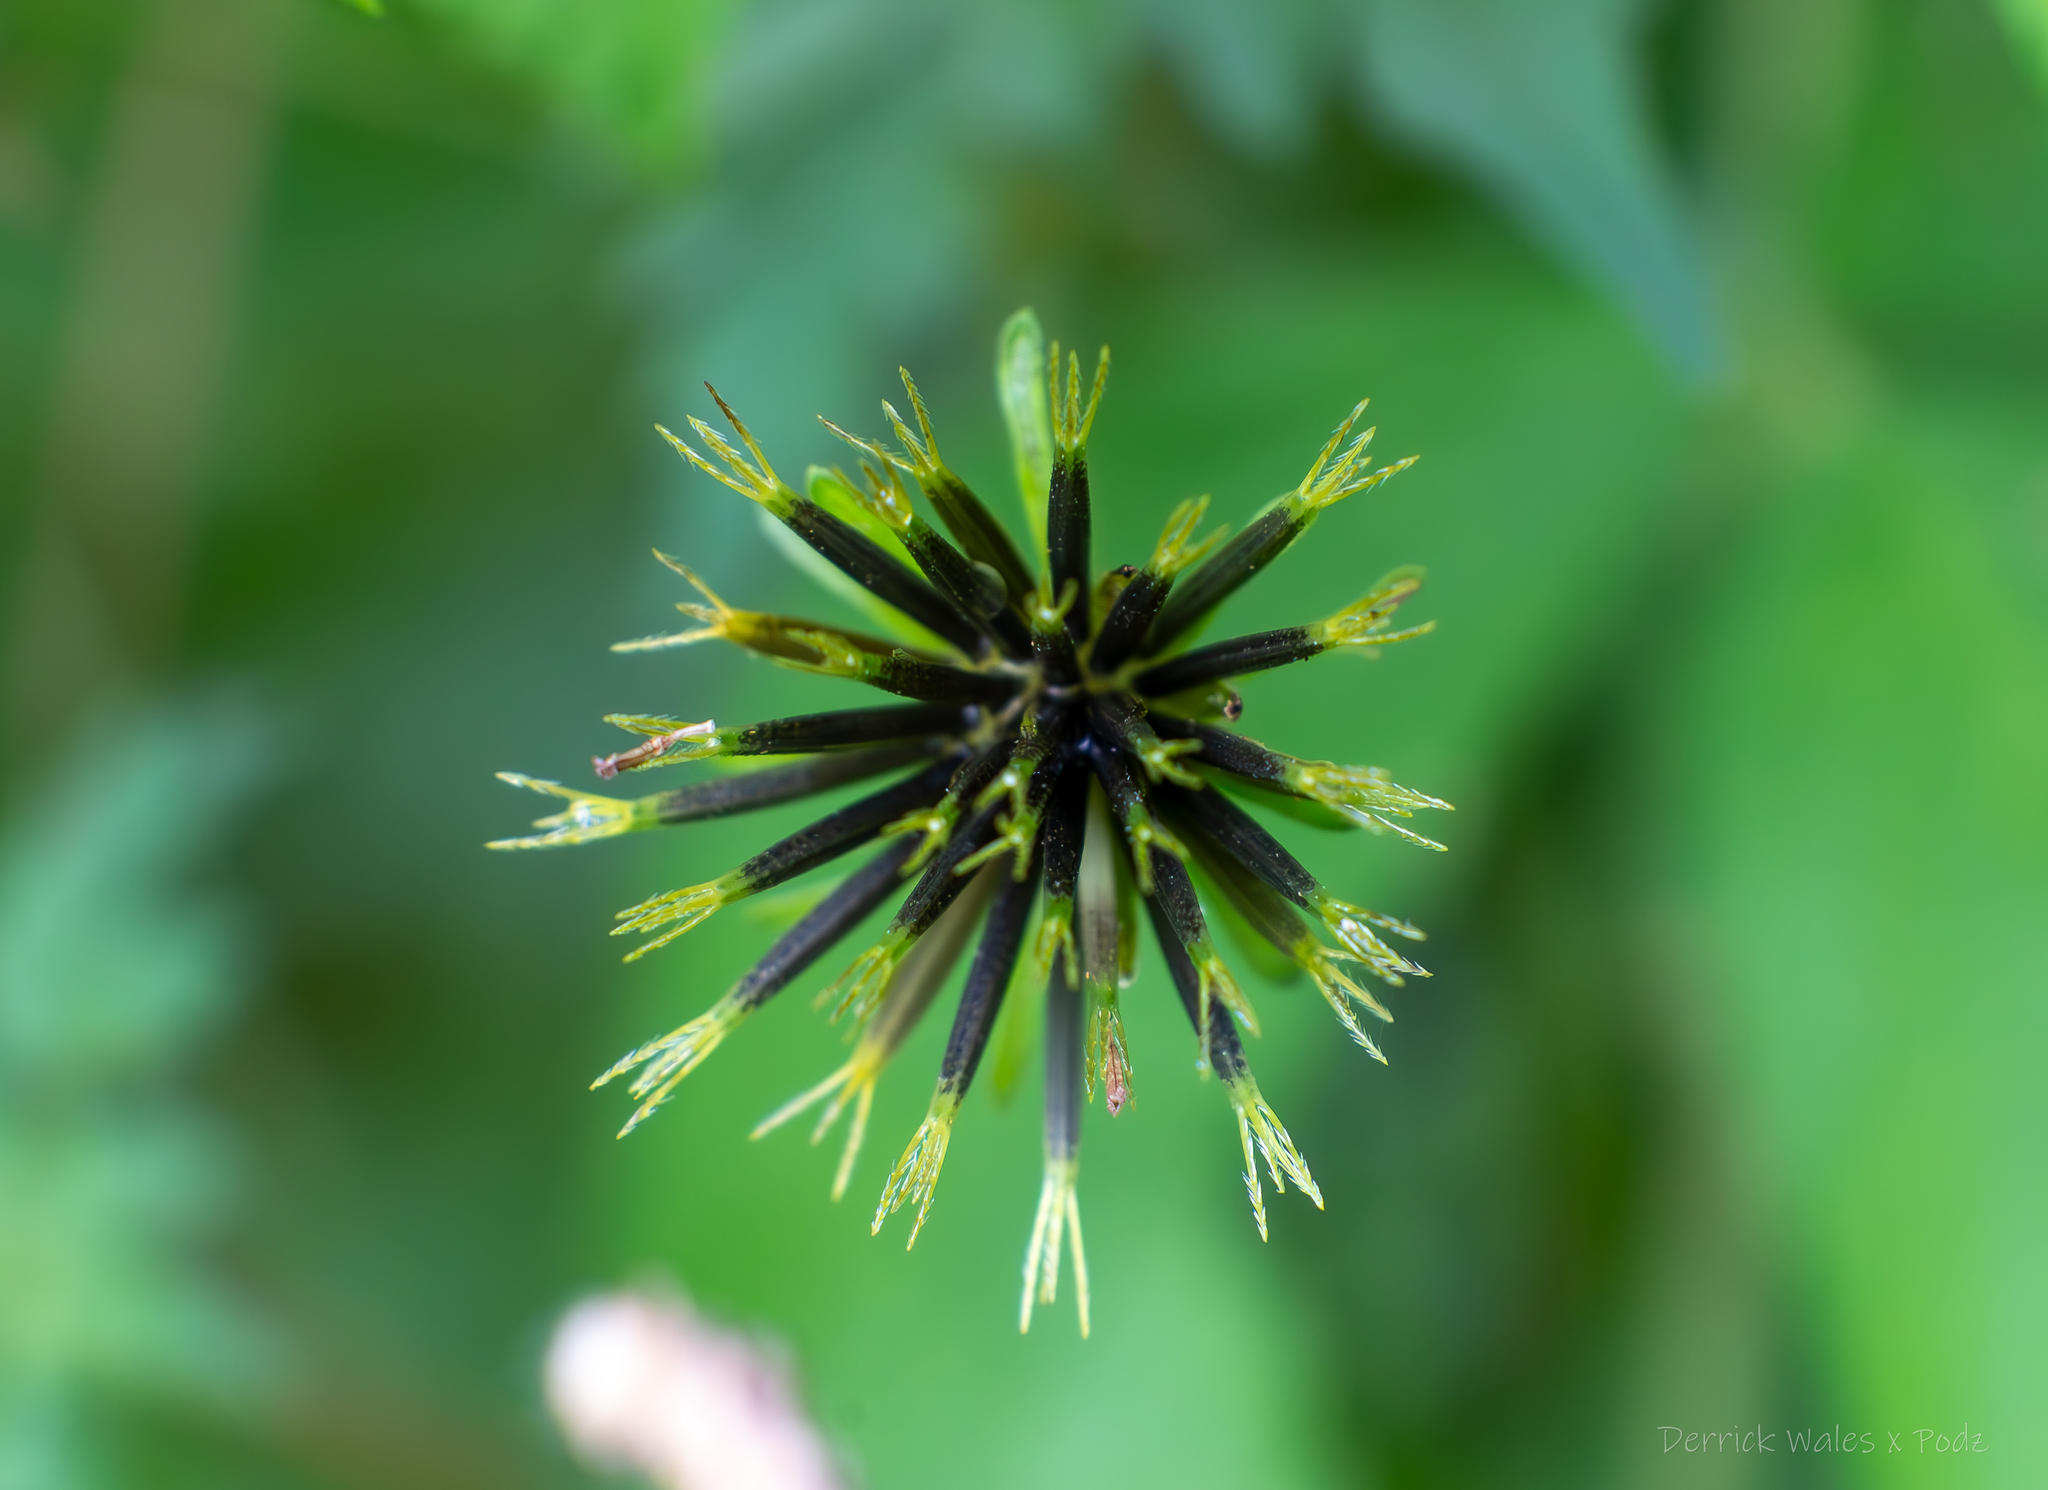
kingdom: Plantae
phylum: Tracheophyta
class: Magnoliopsida
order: Asterales
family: Asteraceae
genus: Bidens
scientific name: Bidens bipinnata
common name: Spanish-needles
